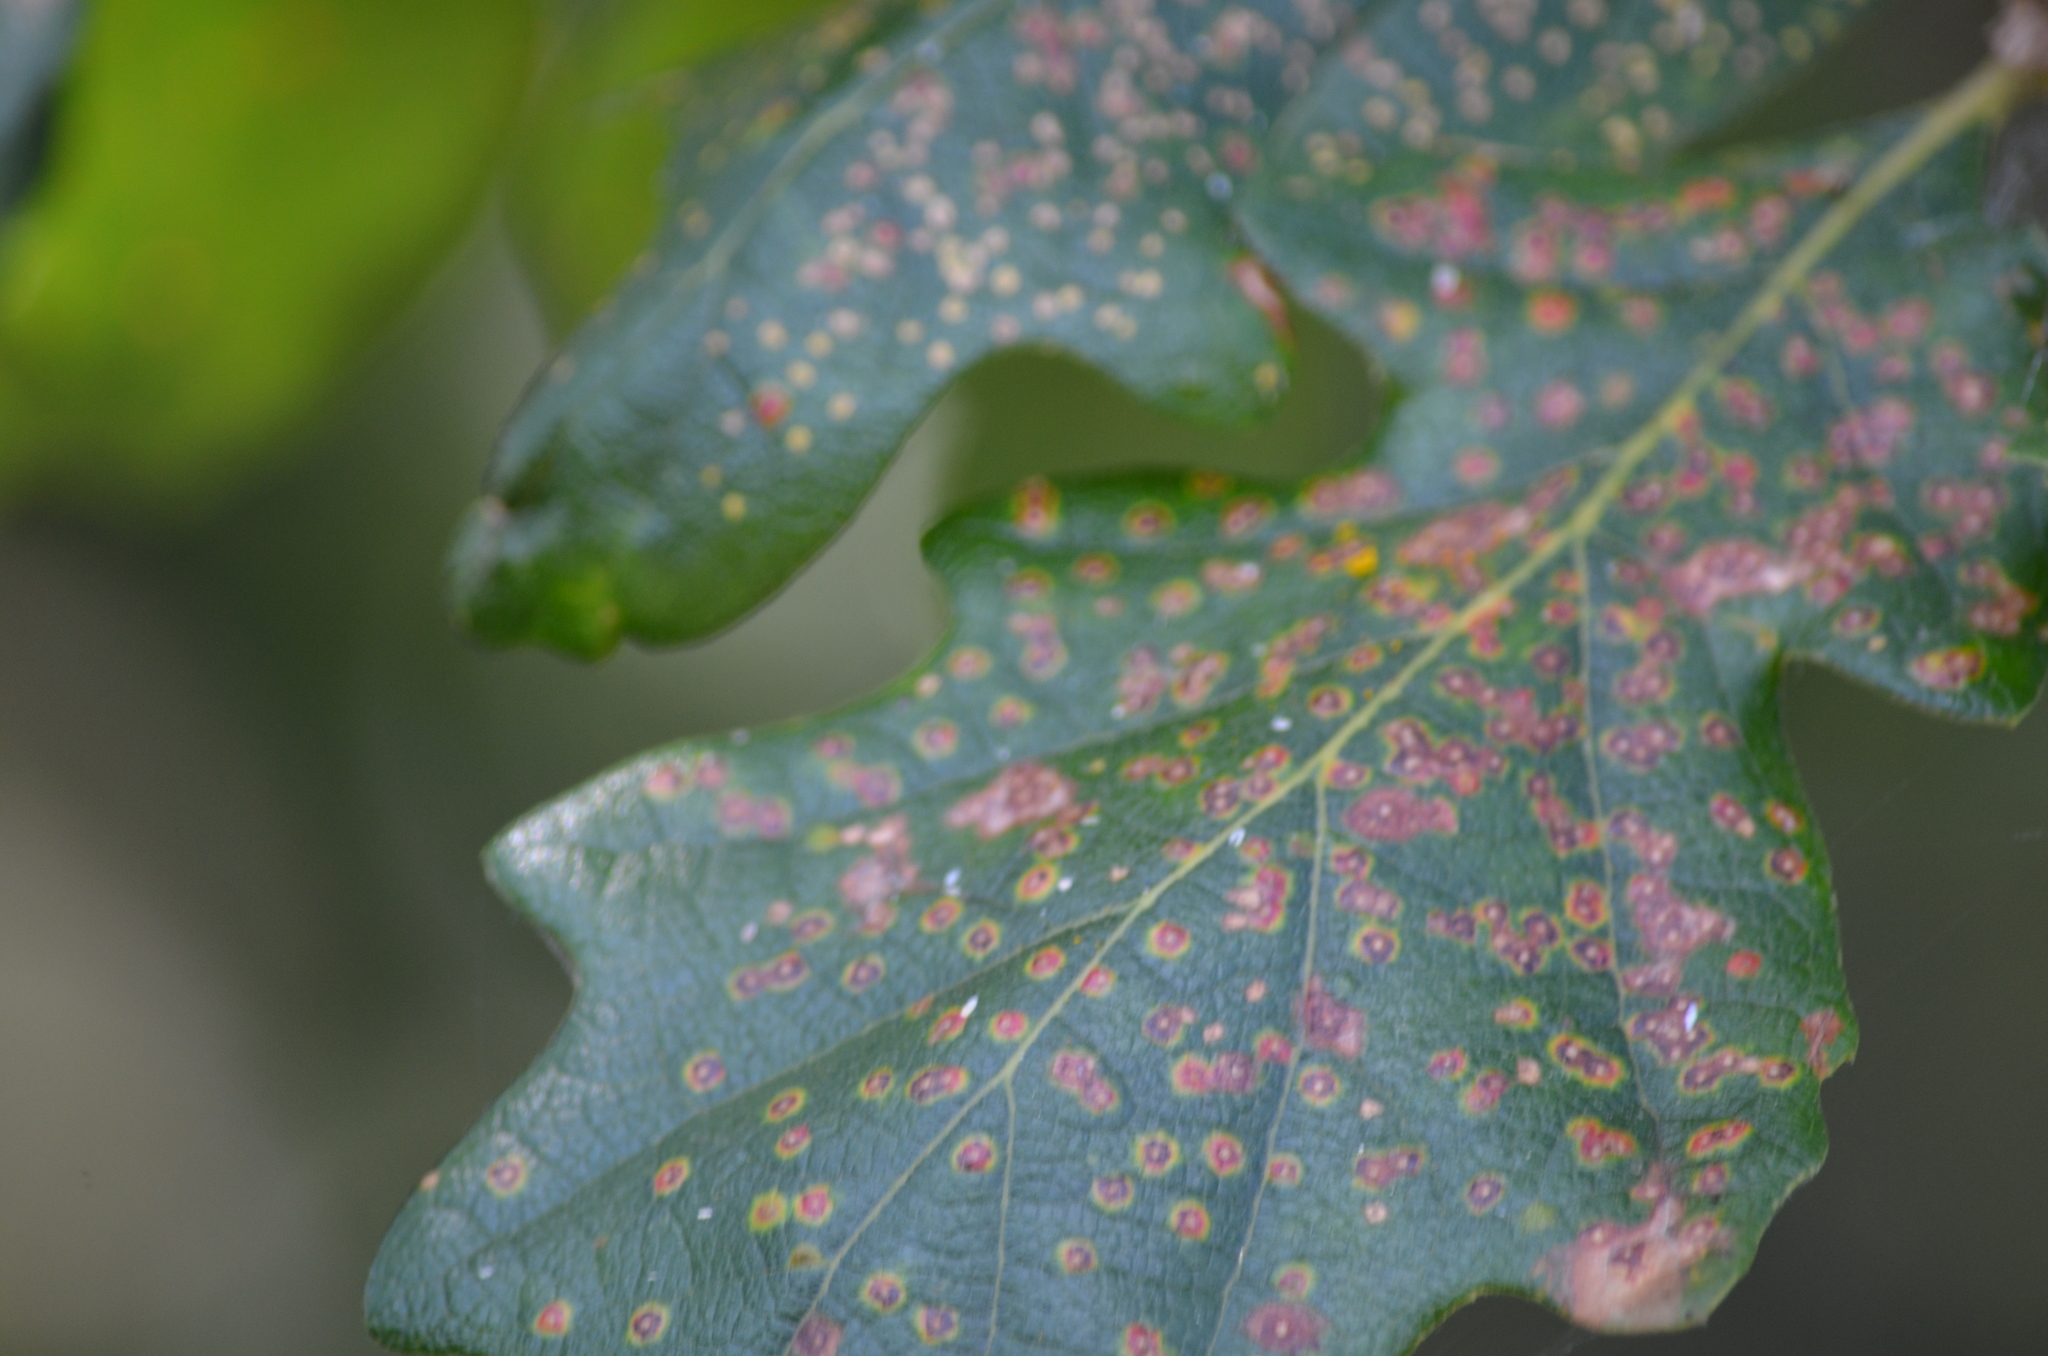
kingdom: Animalia
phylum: Arthropoda
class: Insecta
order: Hymenoptera
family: Cynipidae
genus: Neuroterus
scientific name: Neuroterus saltarius
